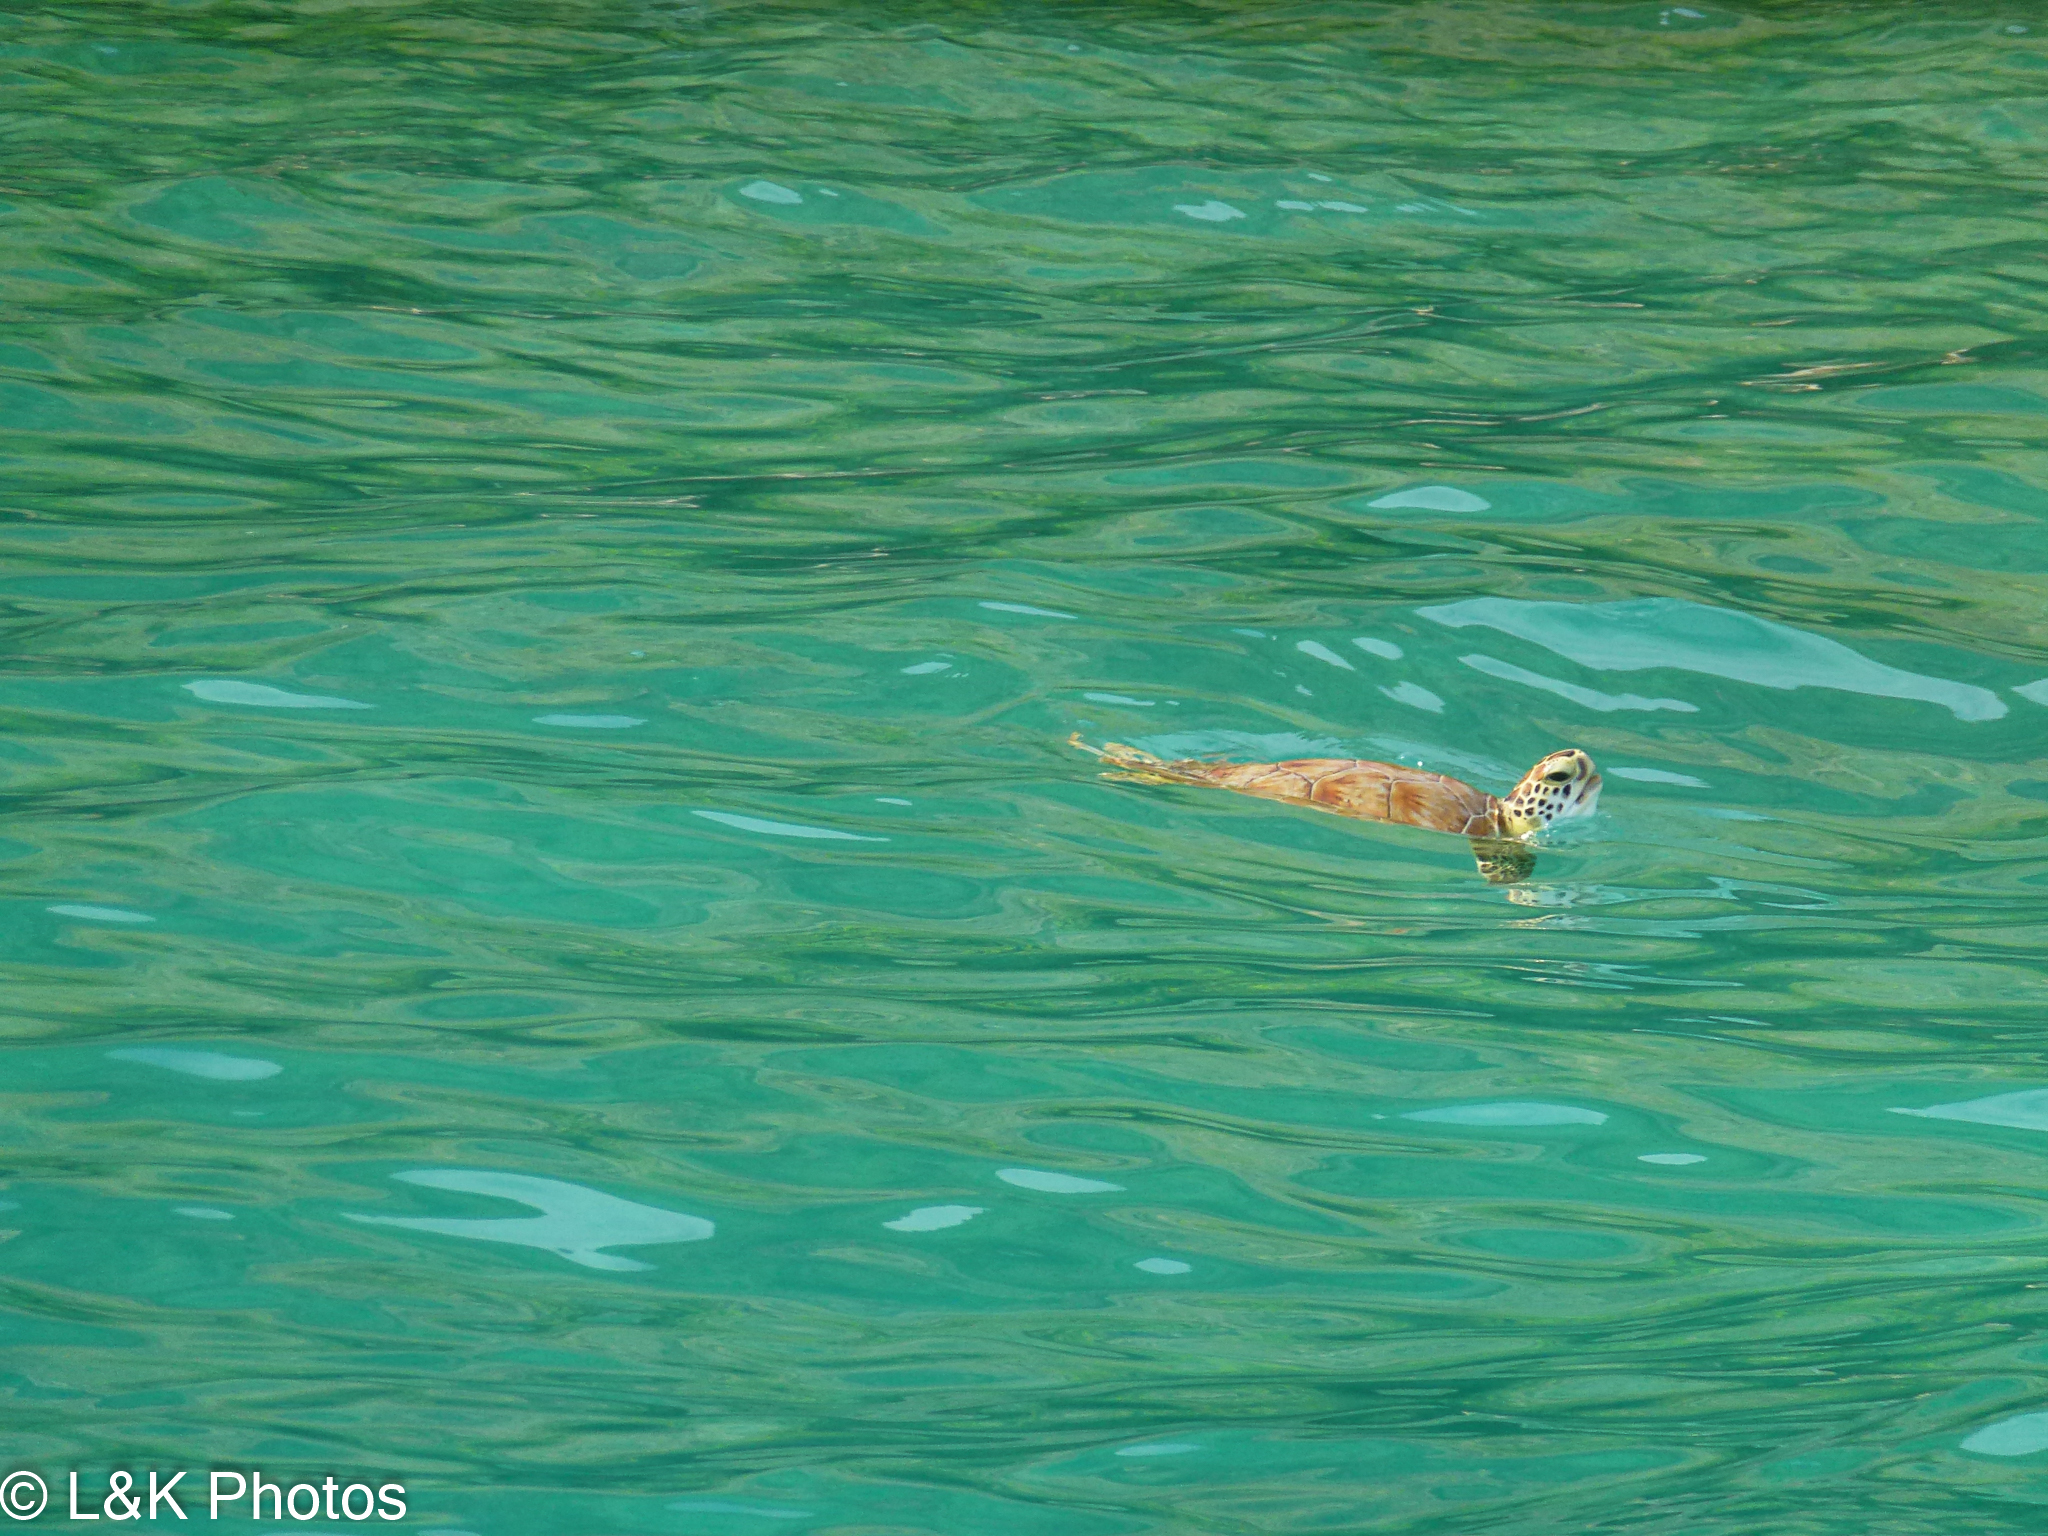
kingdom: Animalia
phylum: Chordata
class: Testudines
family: Cheloniidae
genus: Chelonia
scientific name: Chelonia mydas
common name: Green turtle
